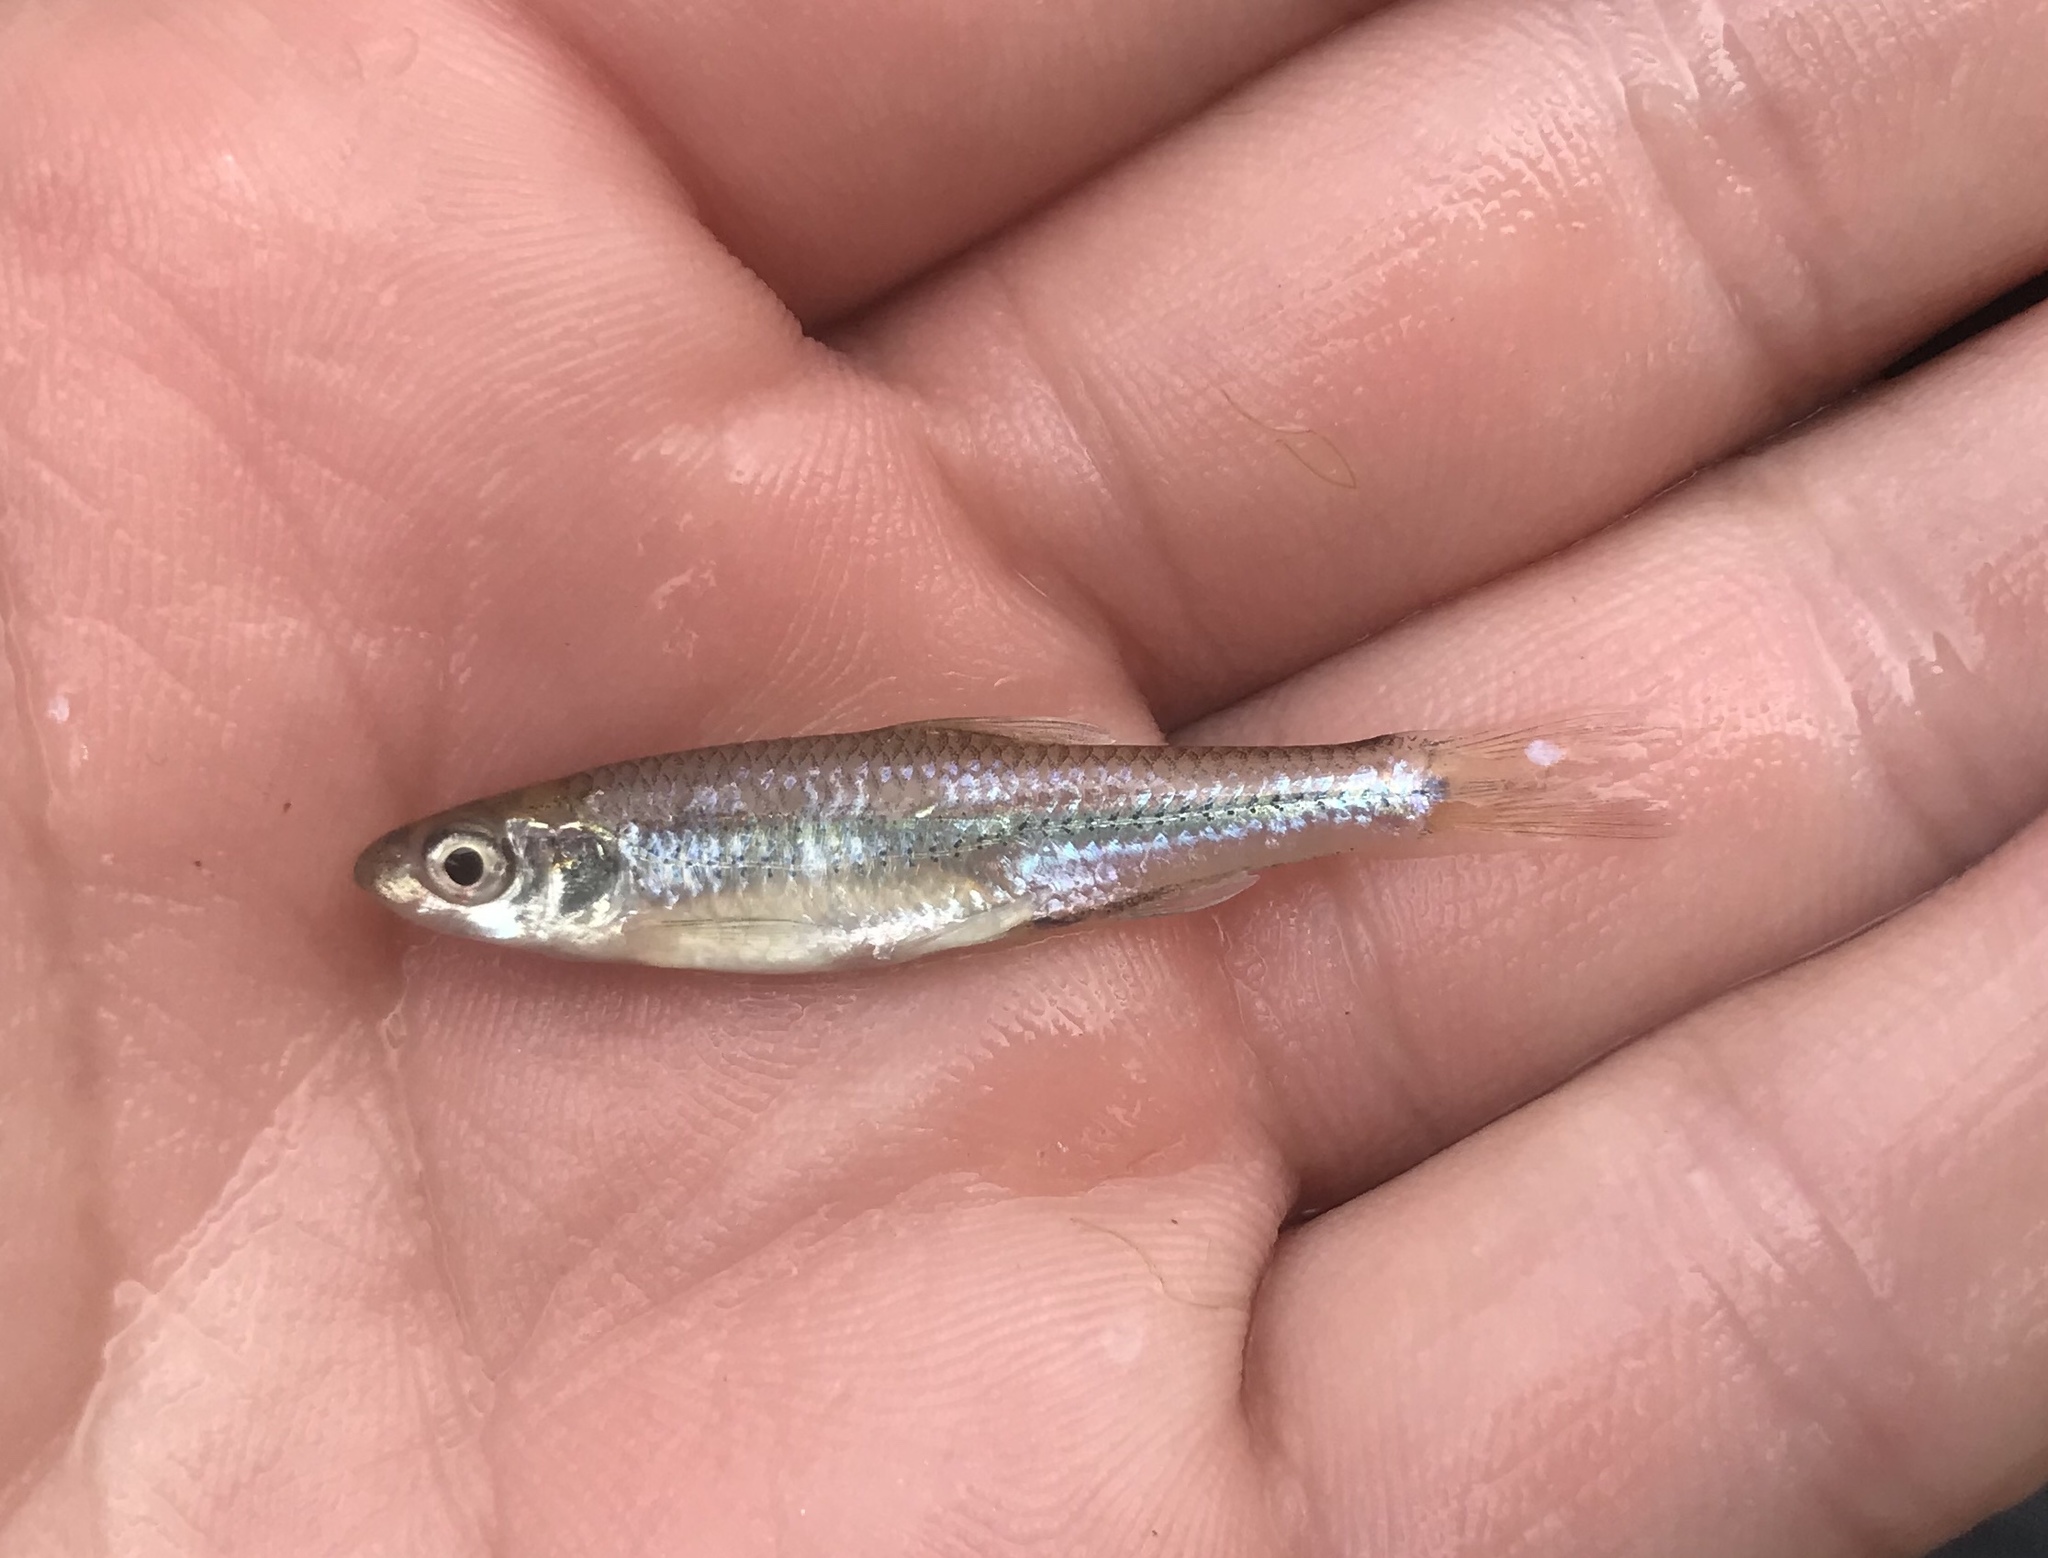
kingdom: Animalia
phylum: Chordata
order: Cypriniformes
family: Cyprinidae
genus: Notropis
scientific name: Notropis
